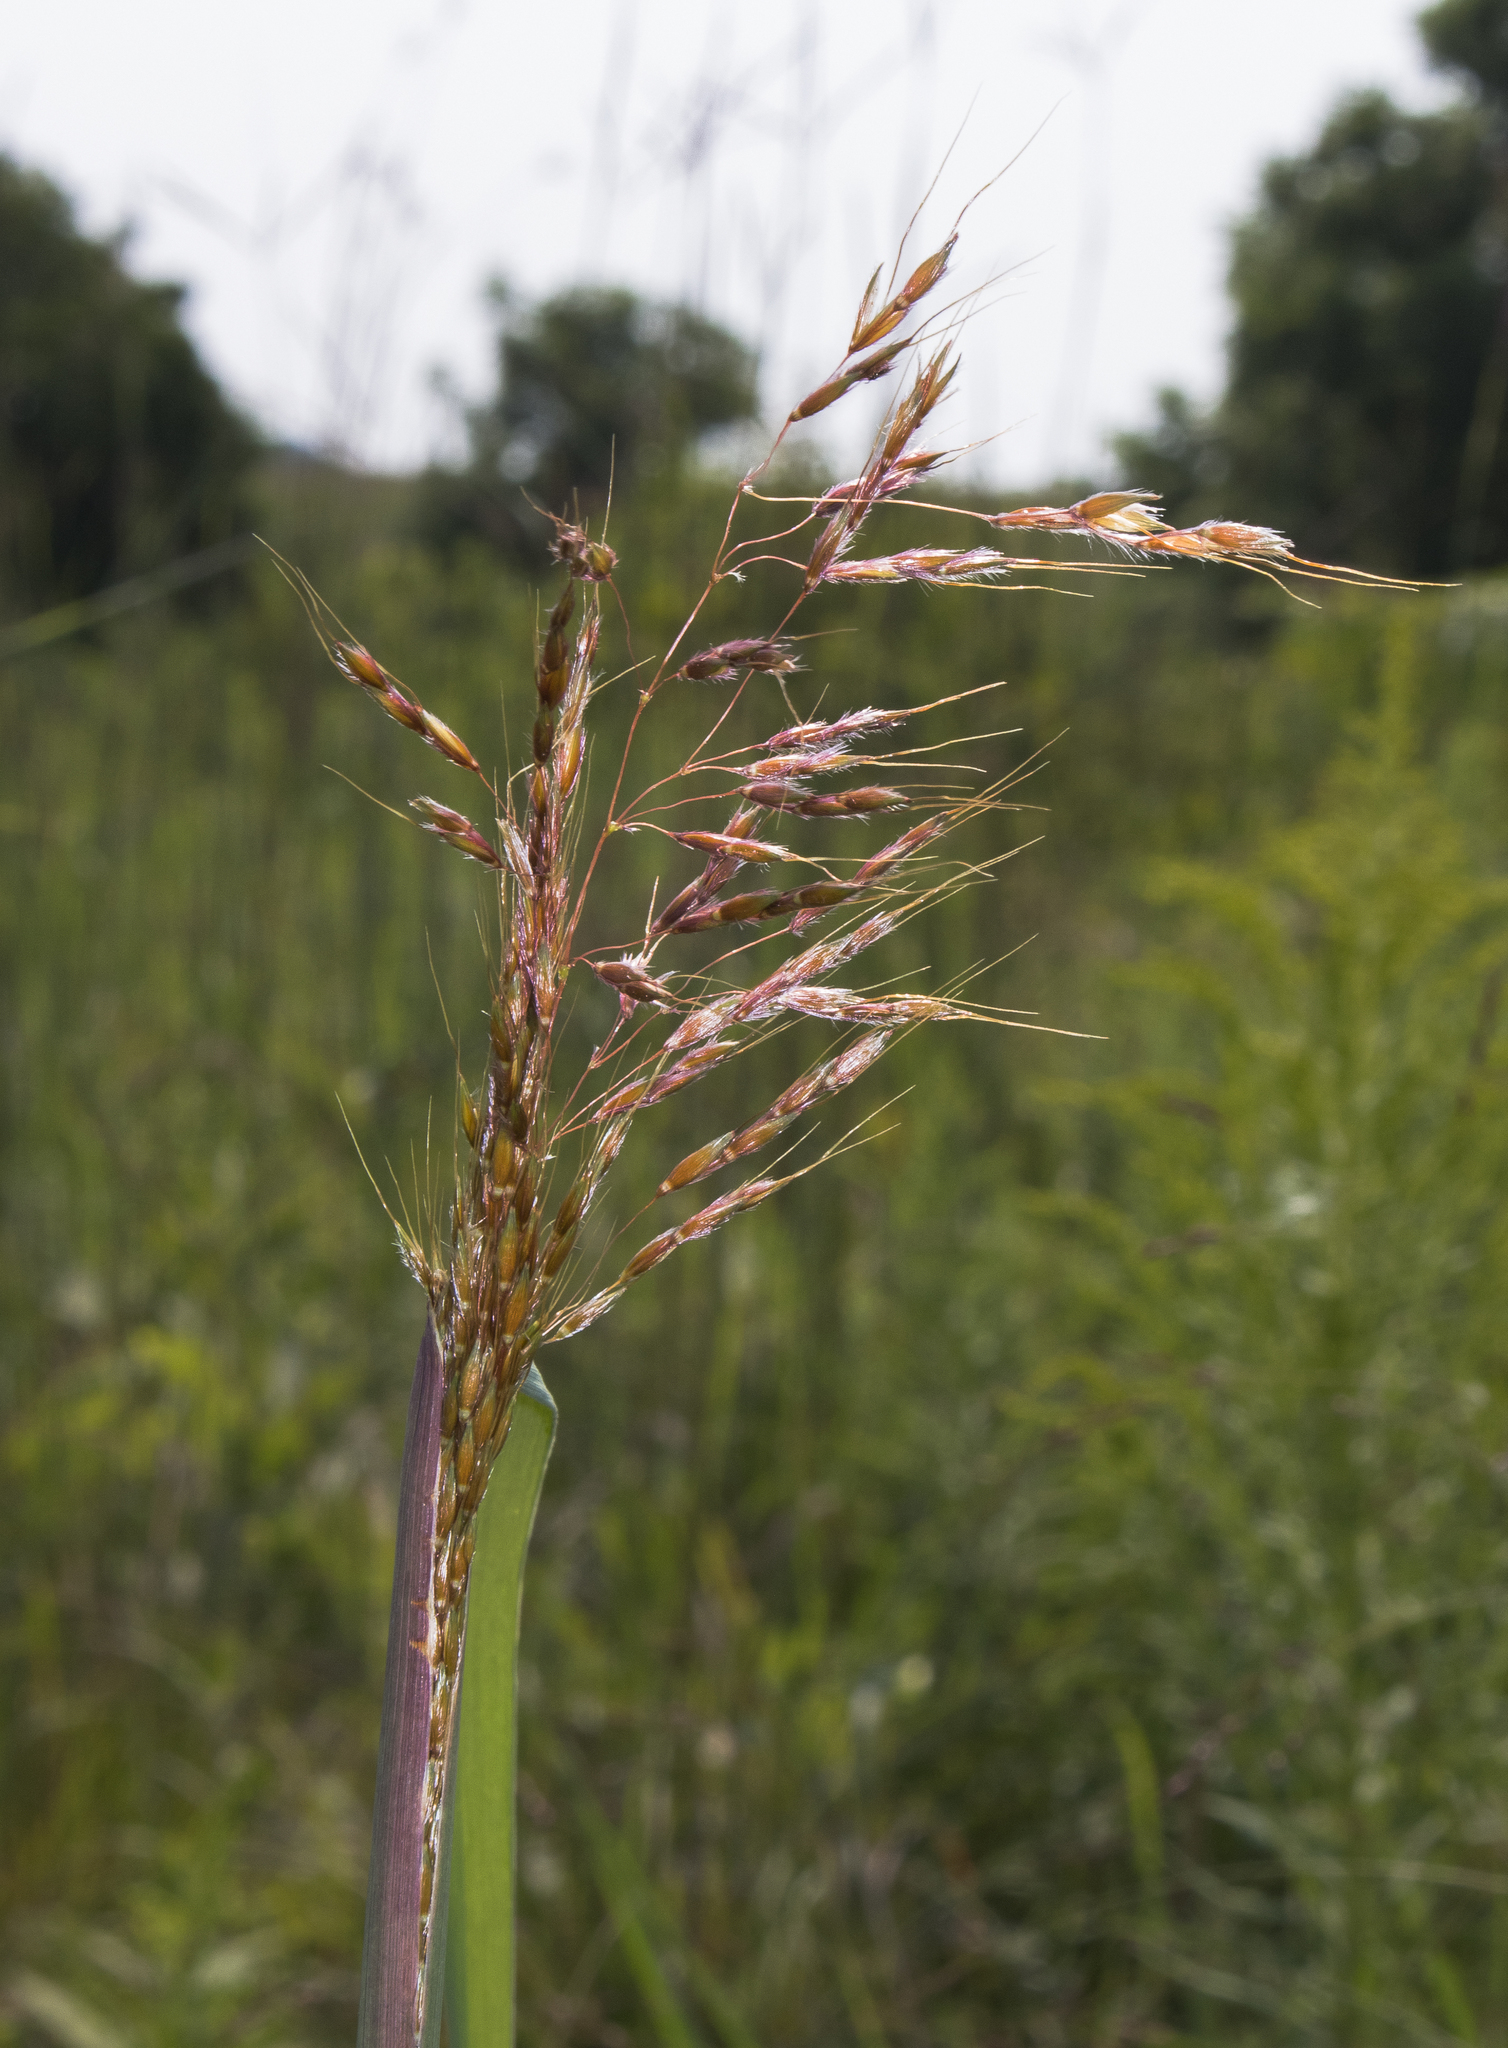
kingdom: Plantae
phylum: Tracheophyta
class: Liliopsida
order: Poales
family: Poaceae
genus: Sorghastrum
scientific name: Sorghastrum nutans
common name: Indian grass
